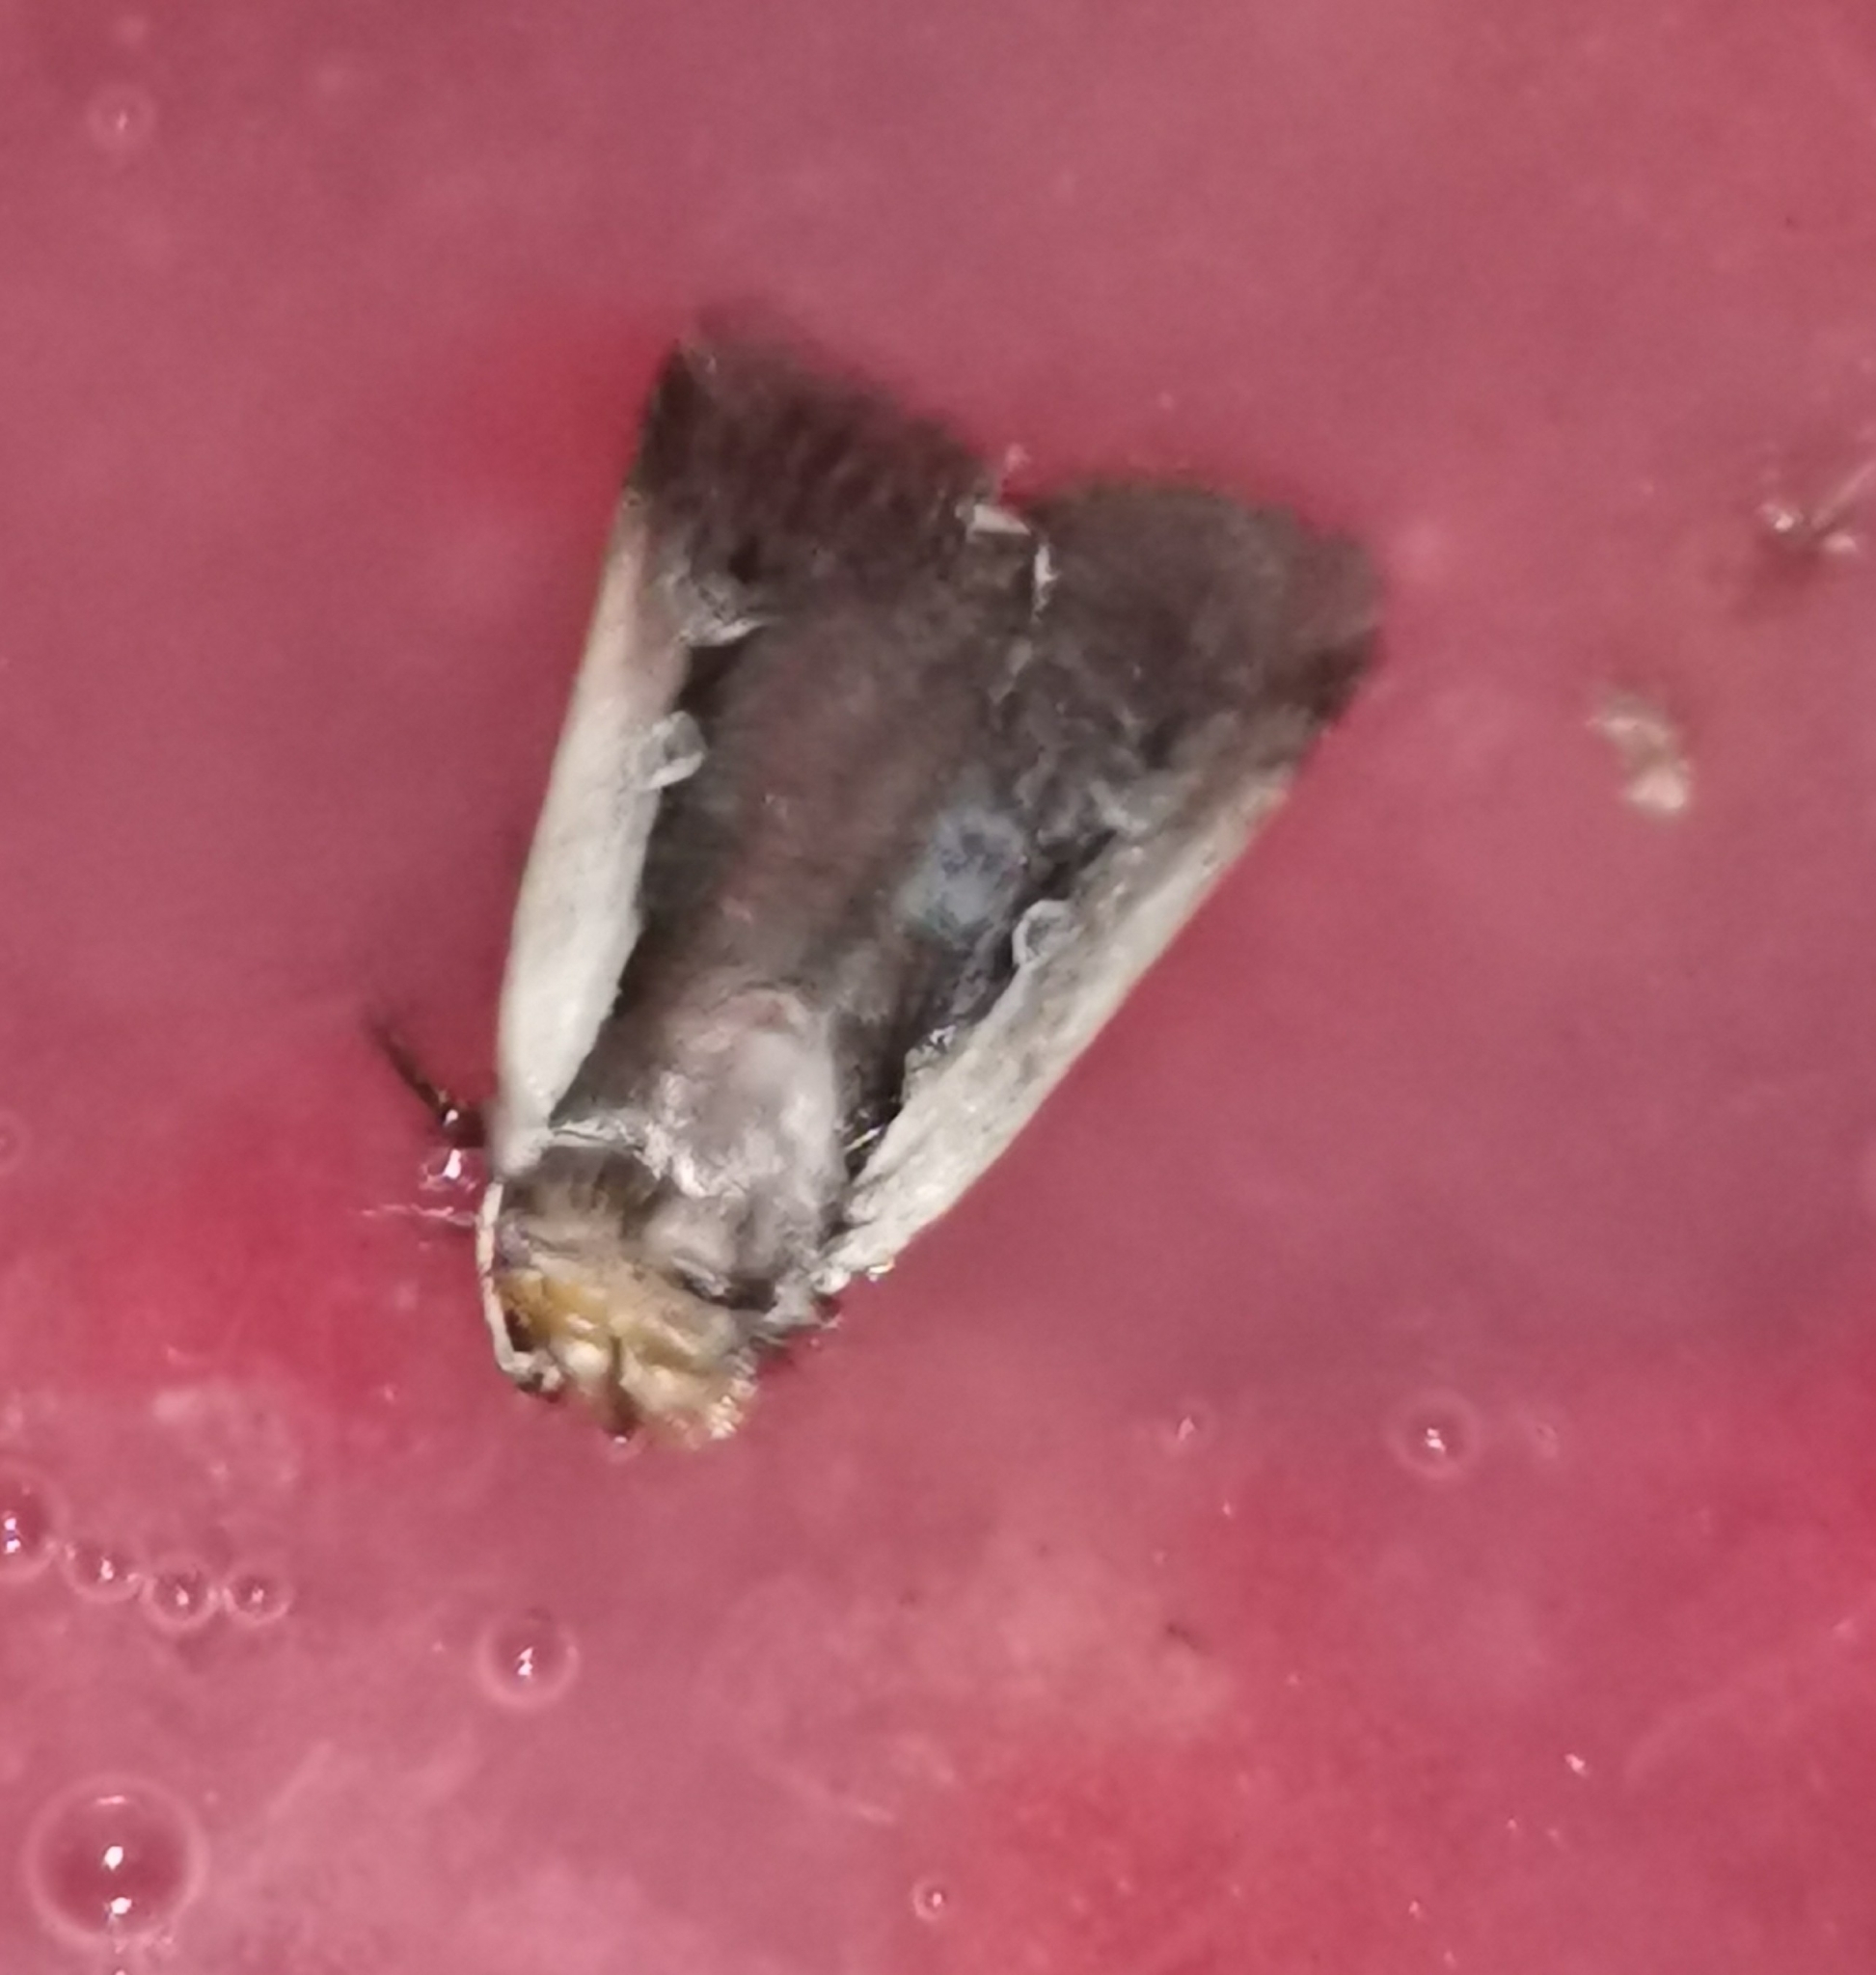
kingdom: Animalia
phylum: Arthropoda
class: Insecta
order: Lepidoptera
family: Noctuidae
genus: Ochropleura
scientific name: Ochropleura plecta
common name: Flame shoulder
